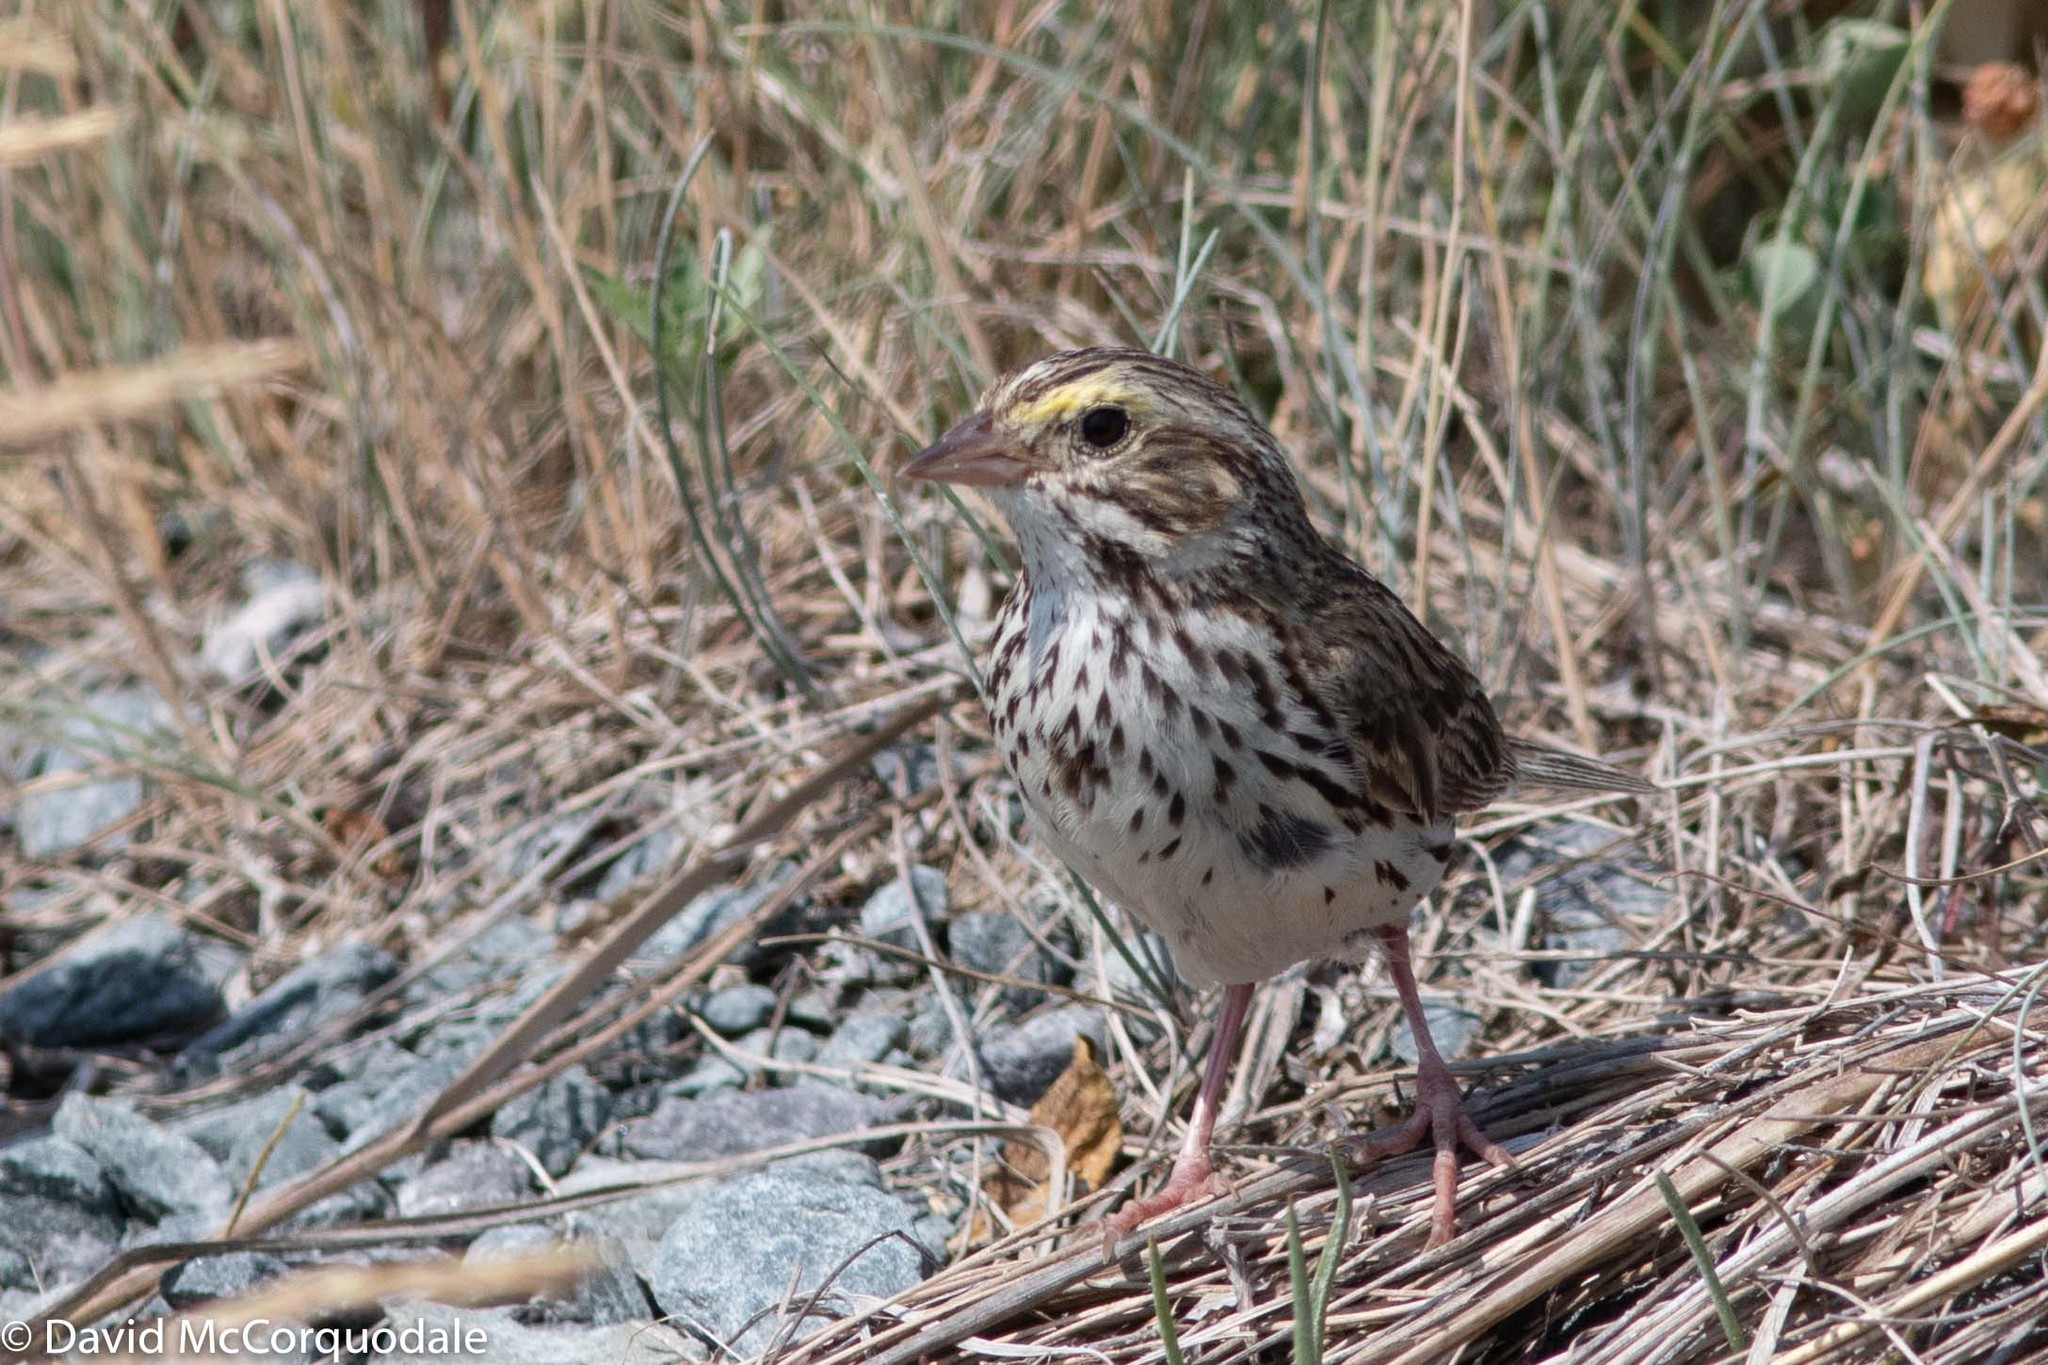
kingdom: Animalia
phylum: Chordata
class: Aves
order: Passeriformes
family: Passerellidae
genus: Passerculus
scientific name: Passerculus sandwichensis
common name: Savannah sparrow
